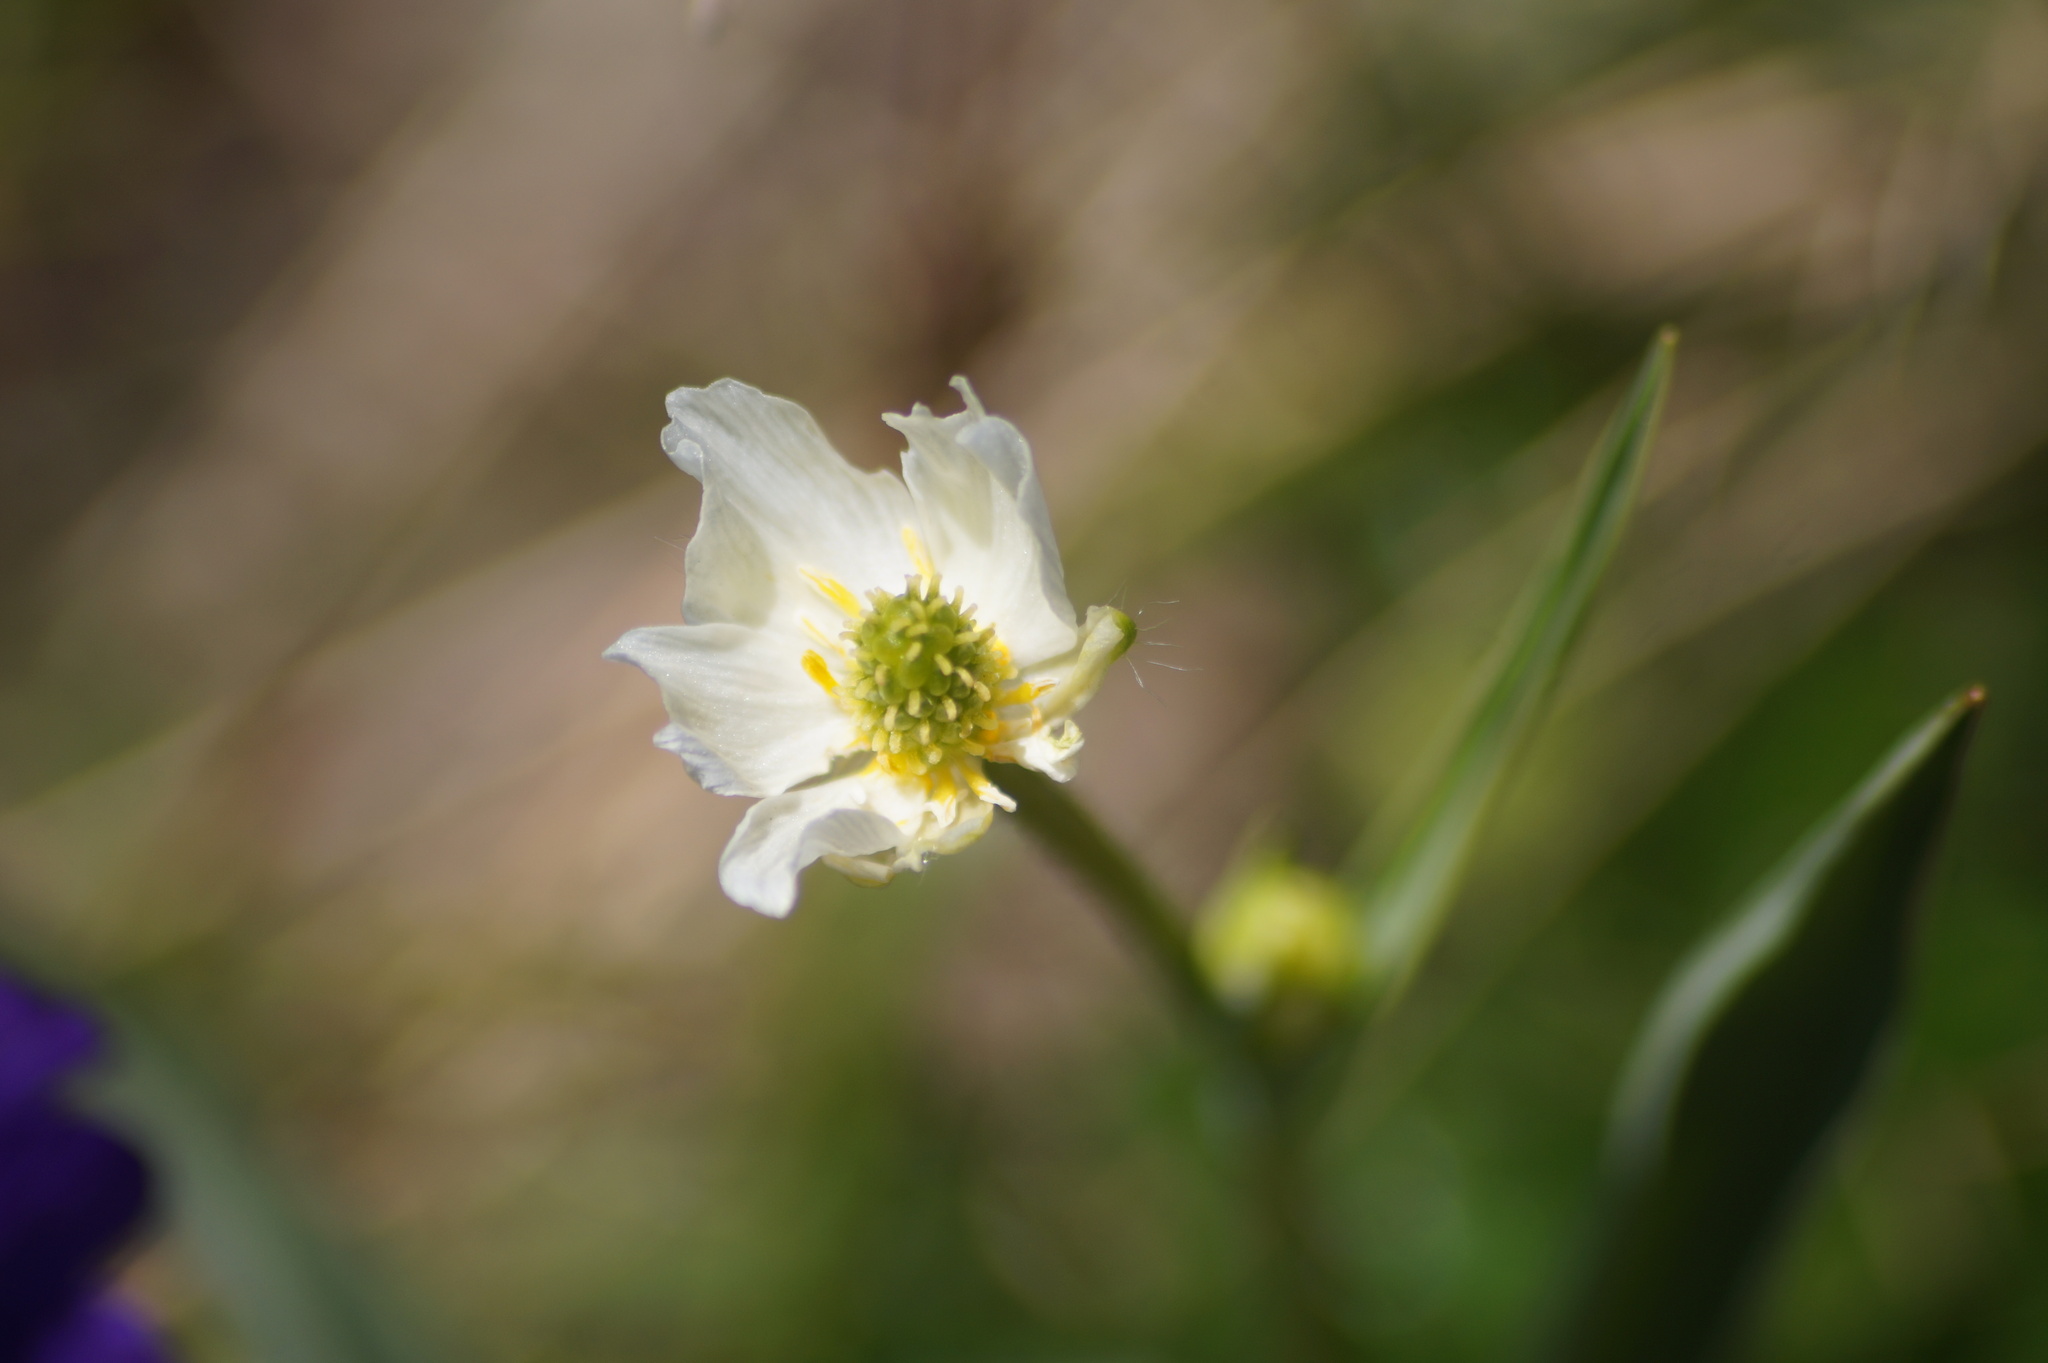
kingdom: Plantae
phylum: Tracheophyta
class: Magnoliopsida
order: Ranunculales
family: Ranunculaceae
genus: Ranunculus
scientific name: Ranunculus kuepferi
